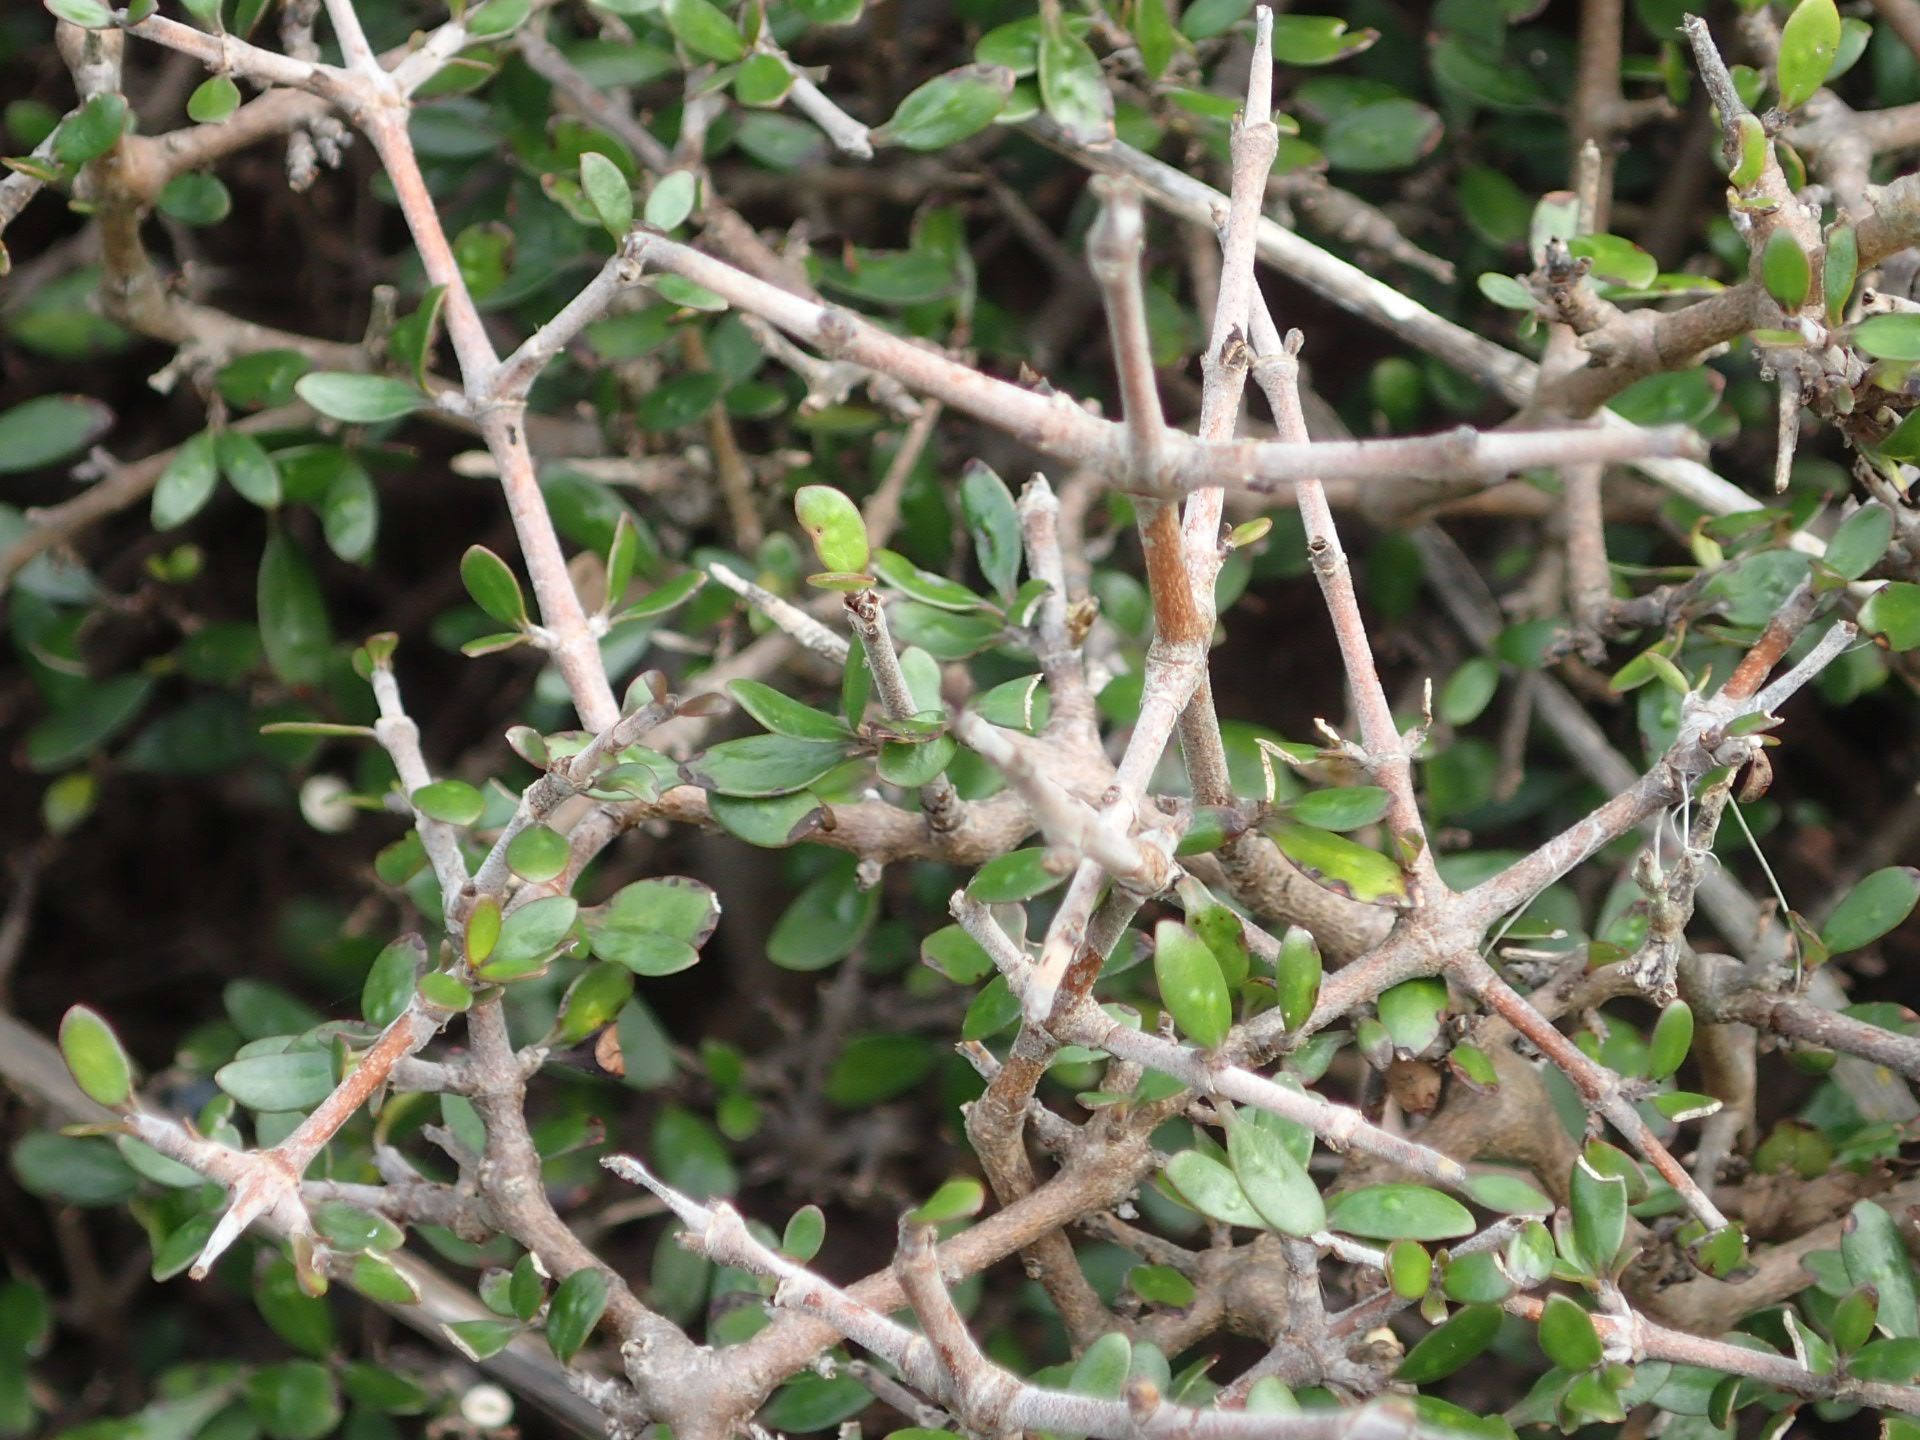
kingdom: Plantae
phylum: Tracheophyta
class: Magnoliopsida
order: Gentianales
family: Rubiaceae
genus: Coprosma
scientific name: Coprosma propinqua
